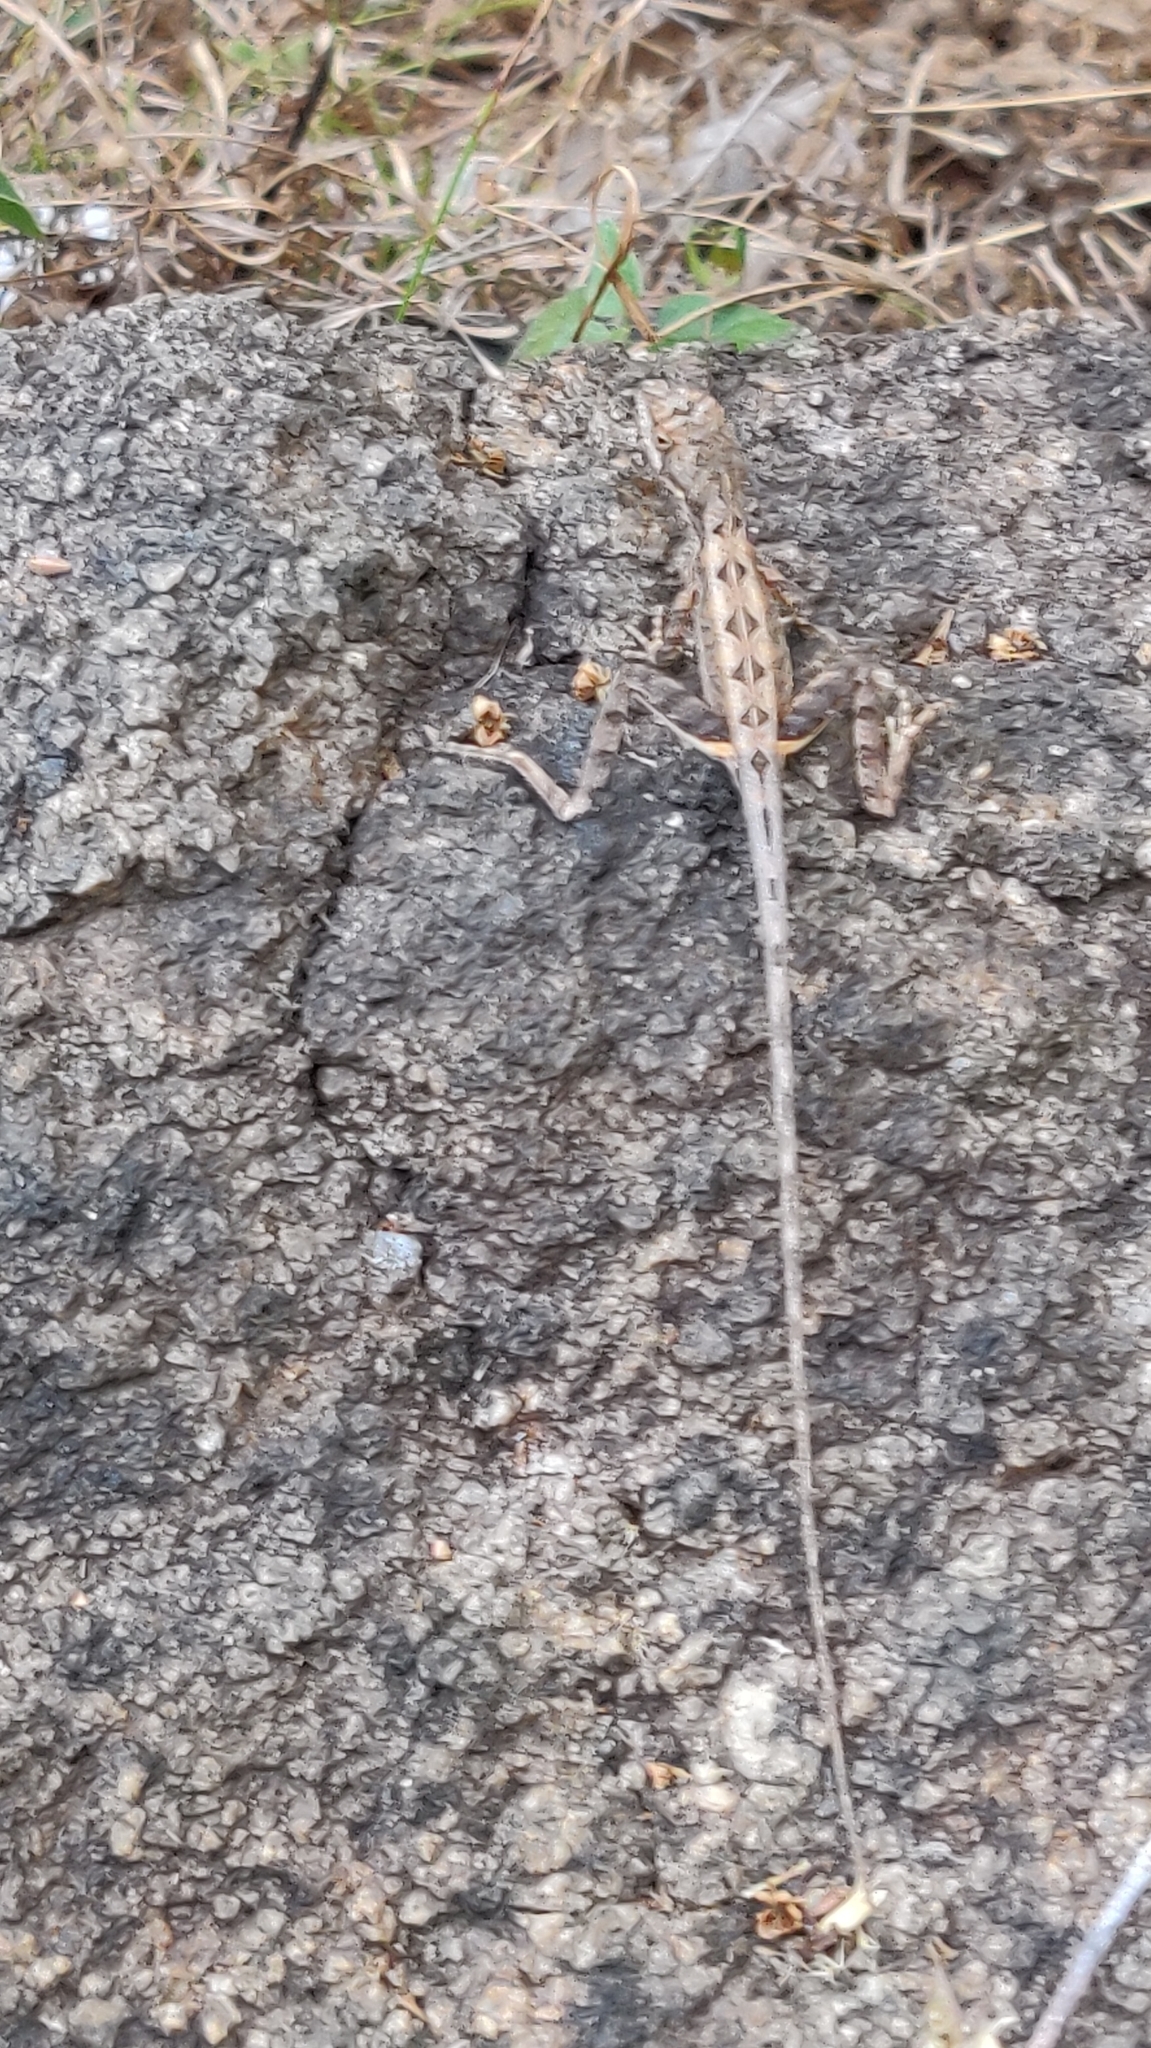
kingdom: Animalia
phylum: Chordata
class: Squamata
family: Agamidae
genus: Sitana
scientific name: Sitana ponticeriana
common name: Pondichéry fan throated lizard
